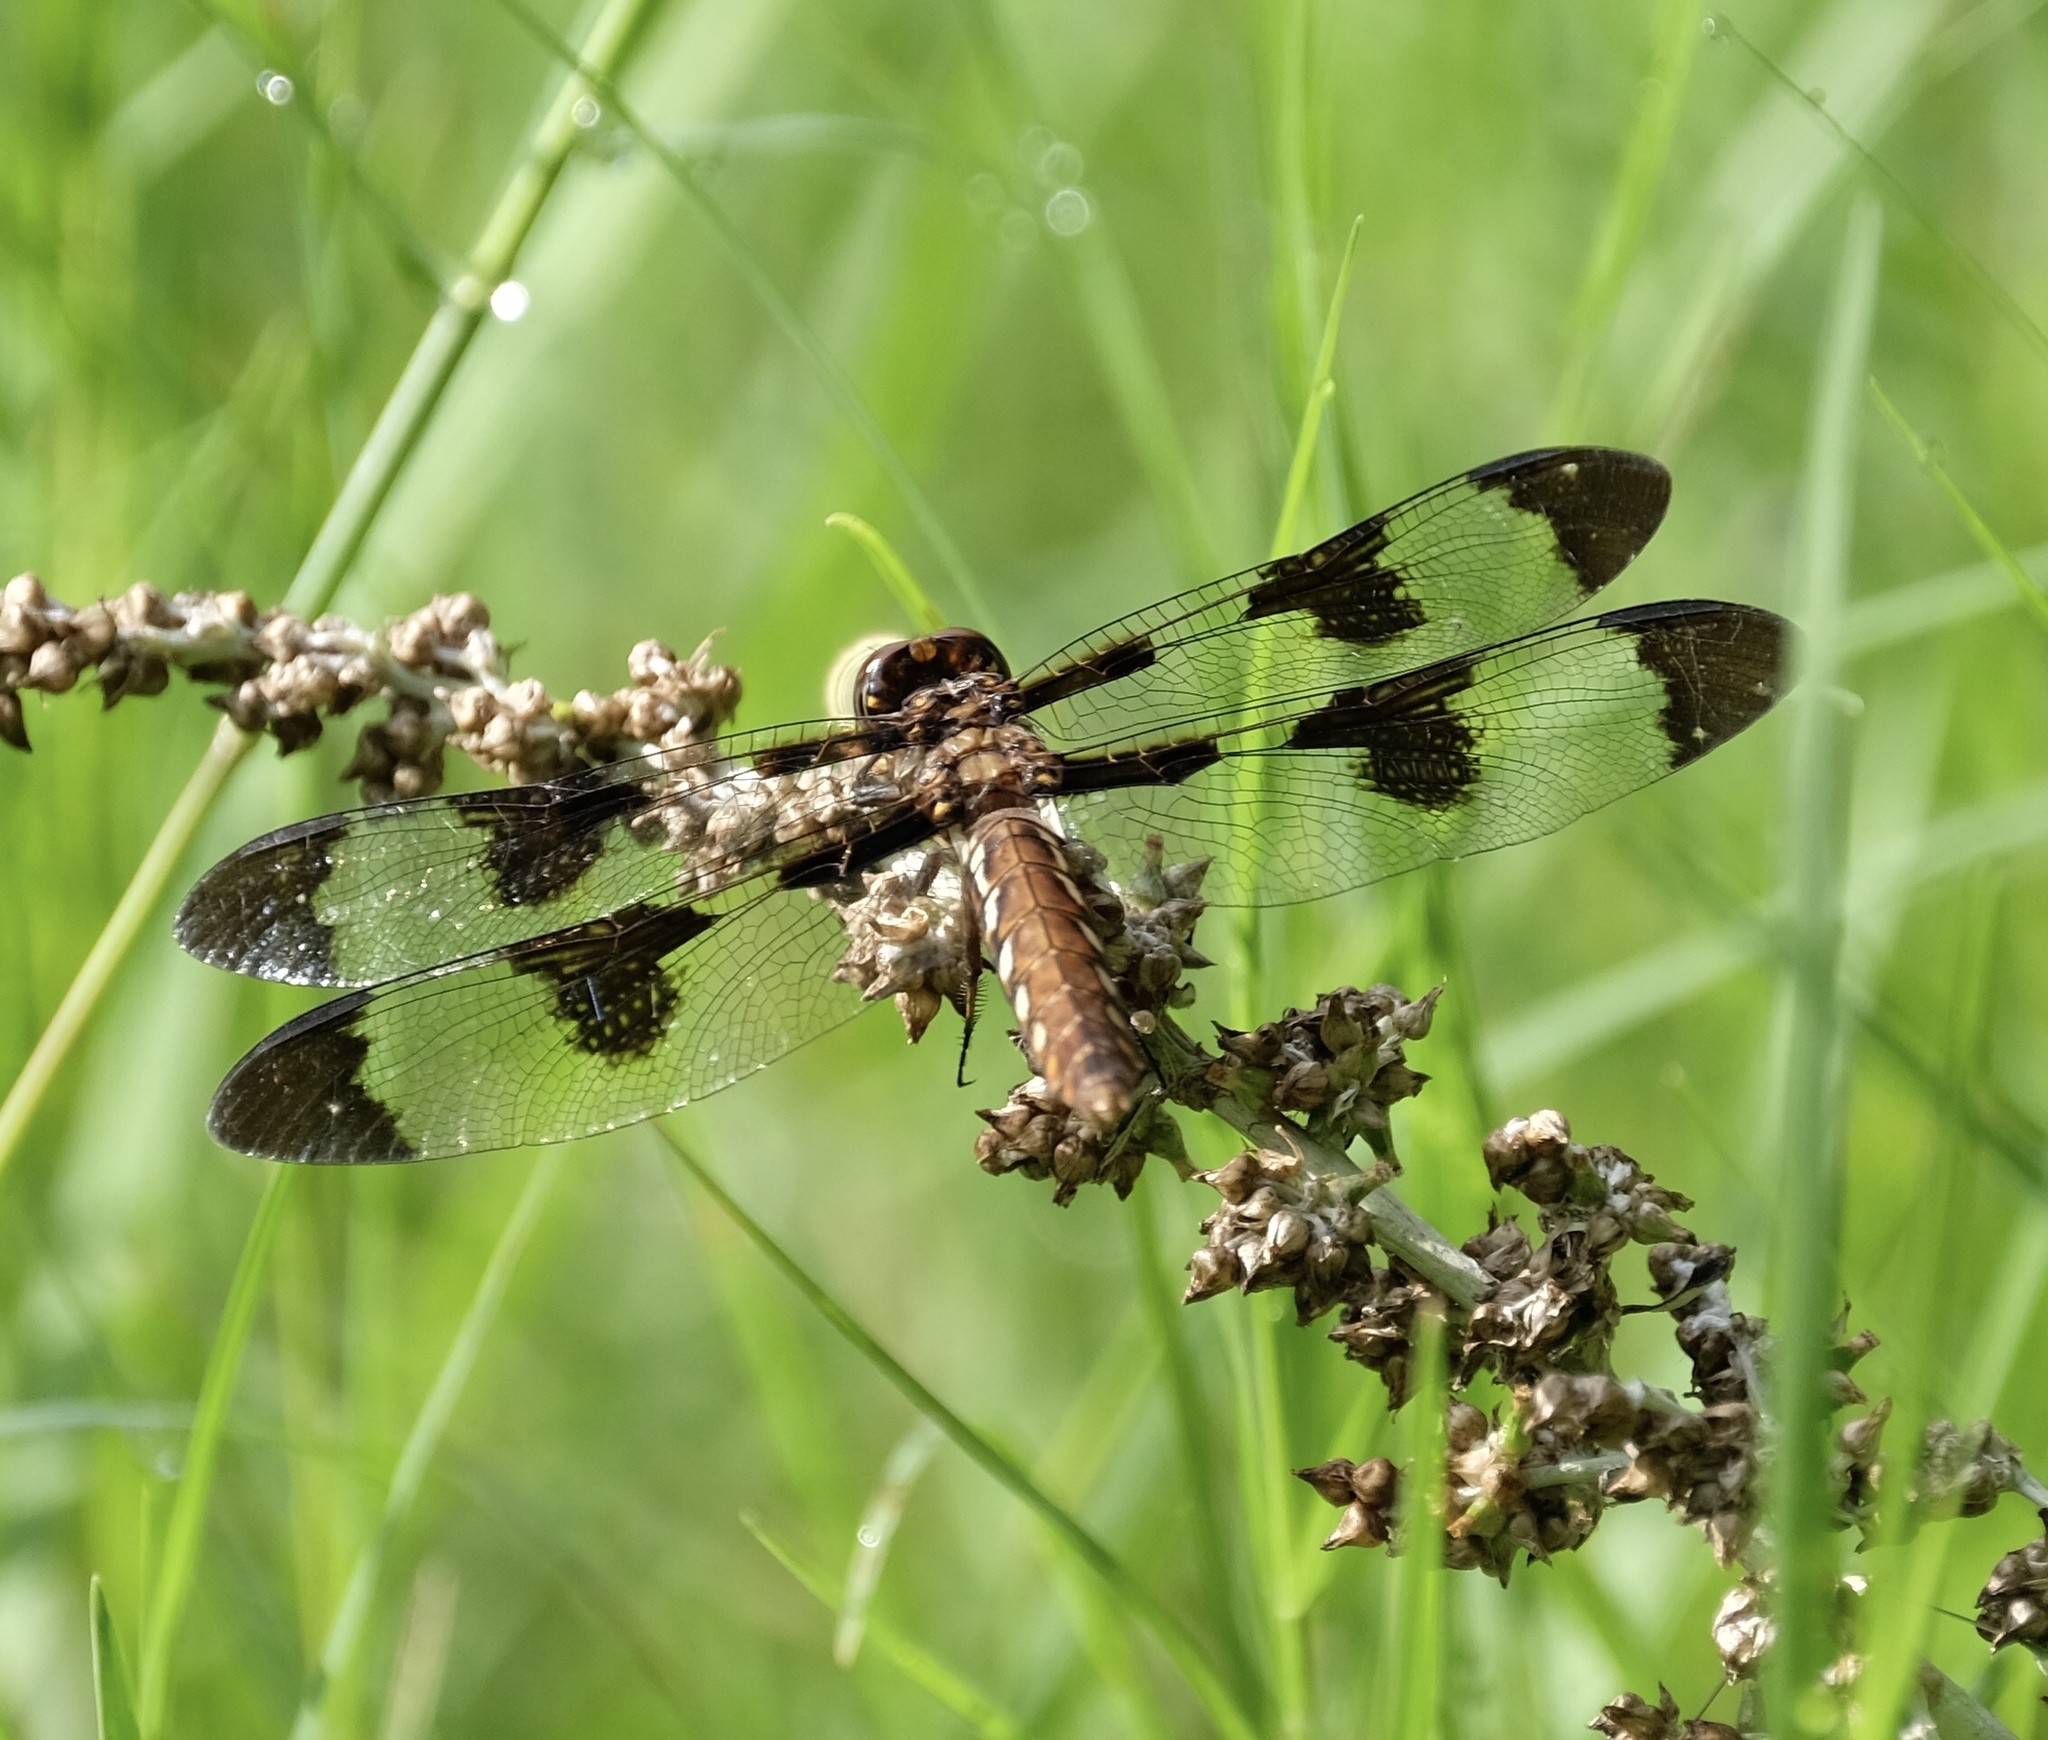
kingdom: Animalia
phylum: Arthropoda
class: Insecta
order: Odonata
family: Libellulidae
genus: Plathemis
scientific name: Plathemis lydia
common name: Common whitetail
